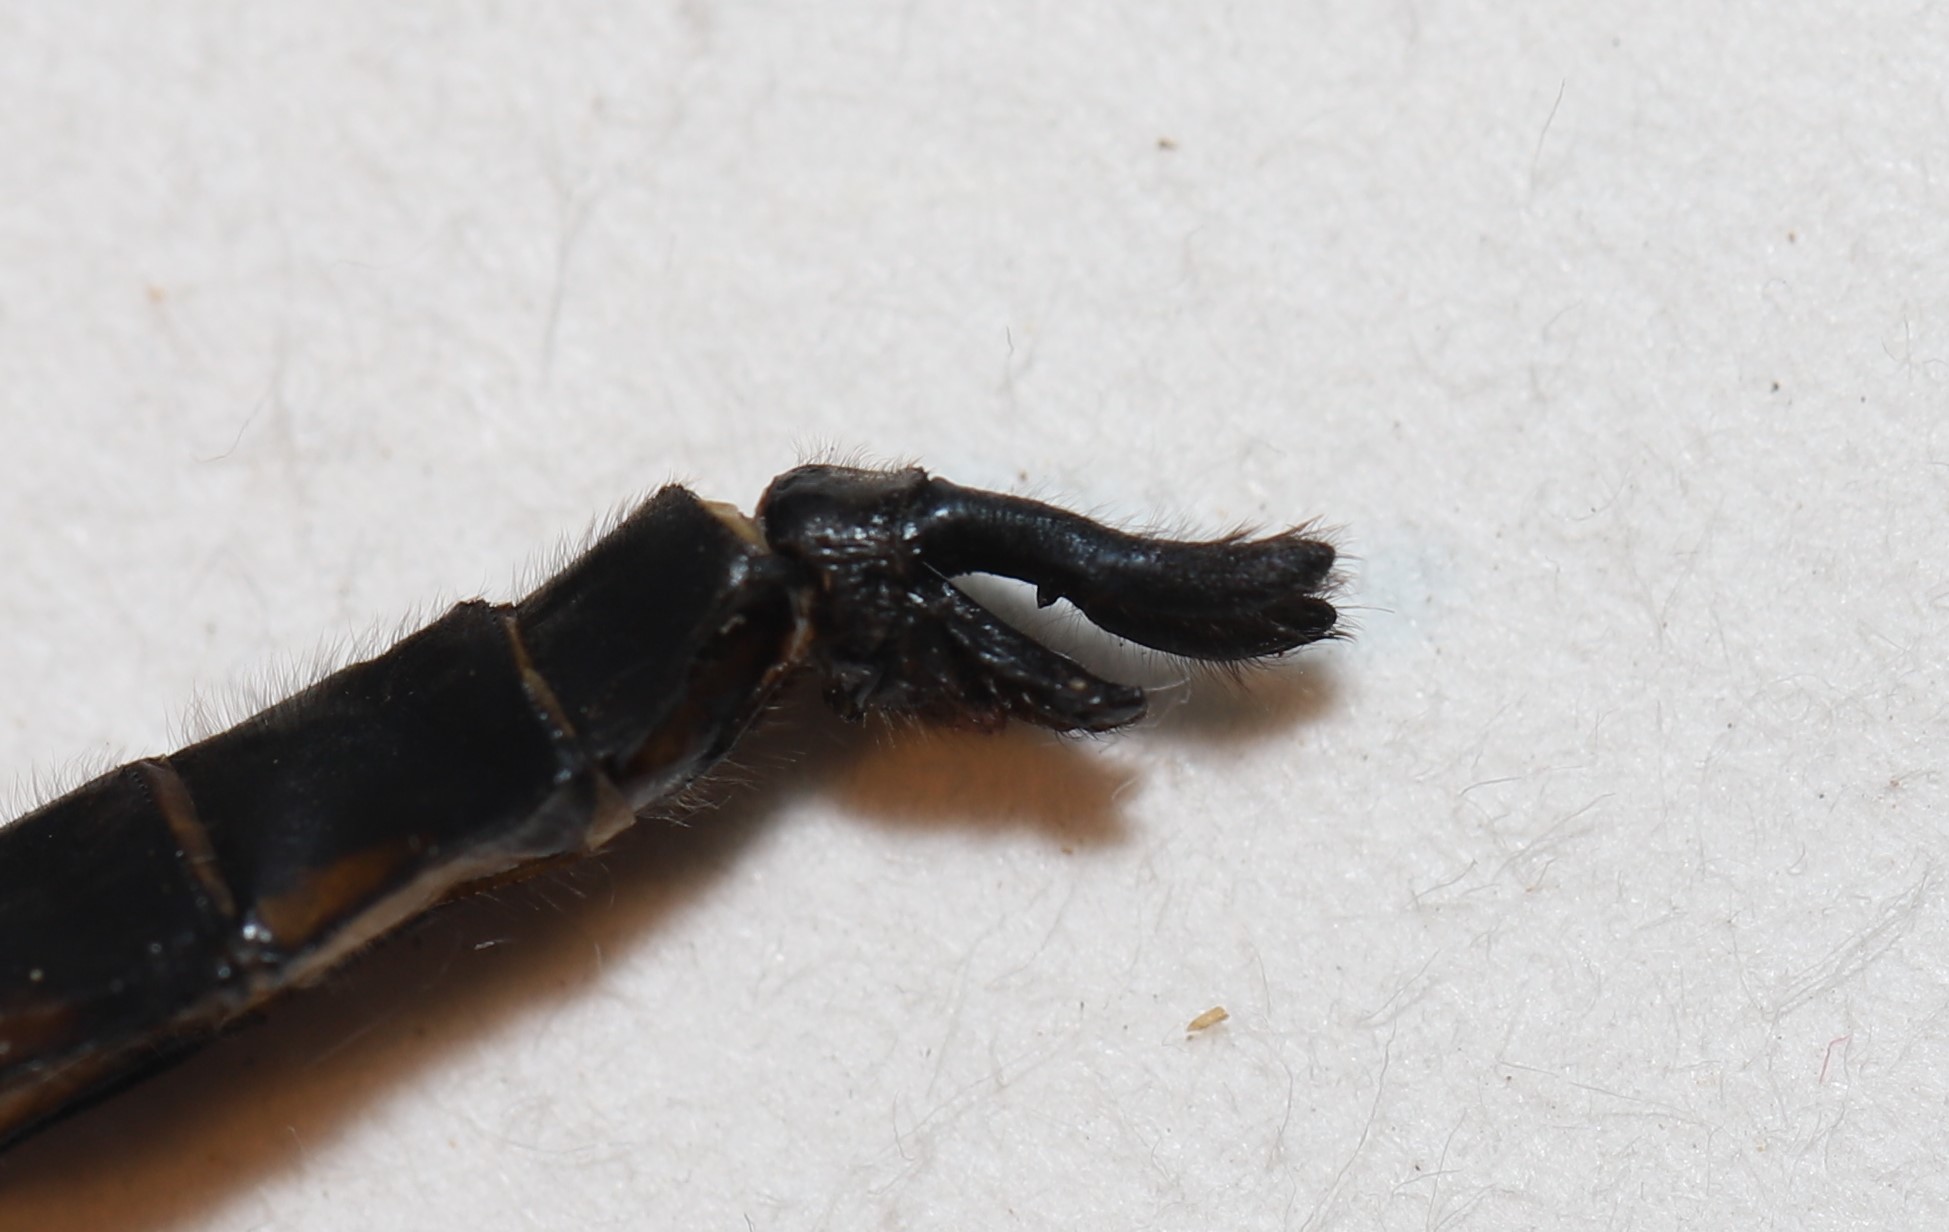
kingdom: Animalia
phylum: Arthropoda
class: Insecta
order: Odonata
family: Corduliidae
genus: Epitheca
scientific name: Epitheca spinigera
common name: Spiny baskettail
